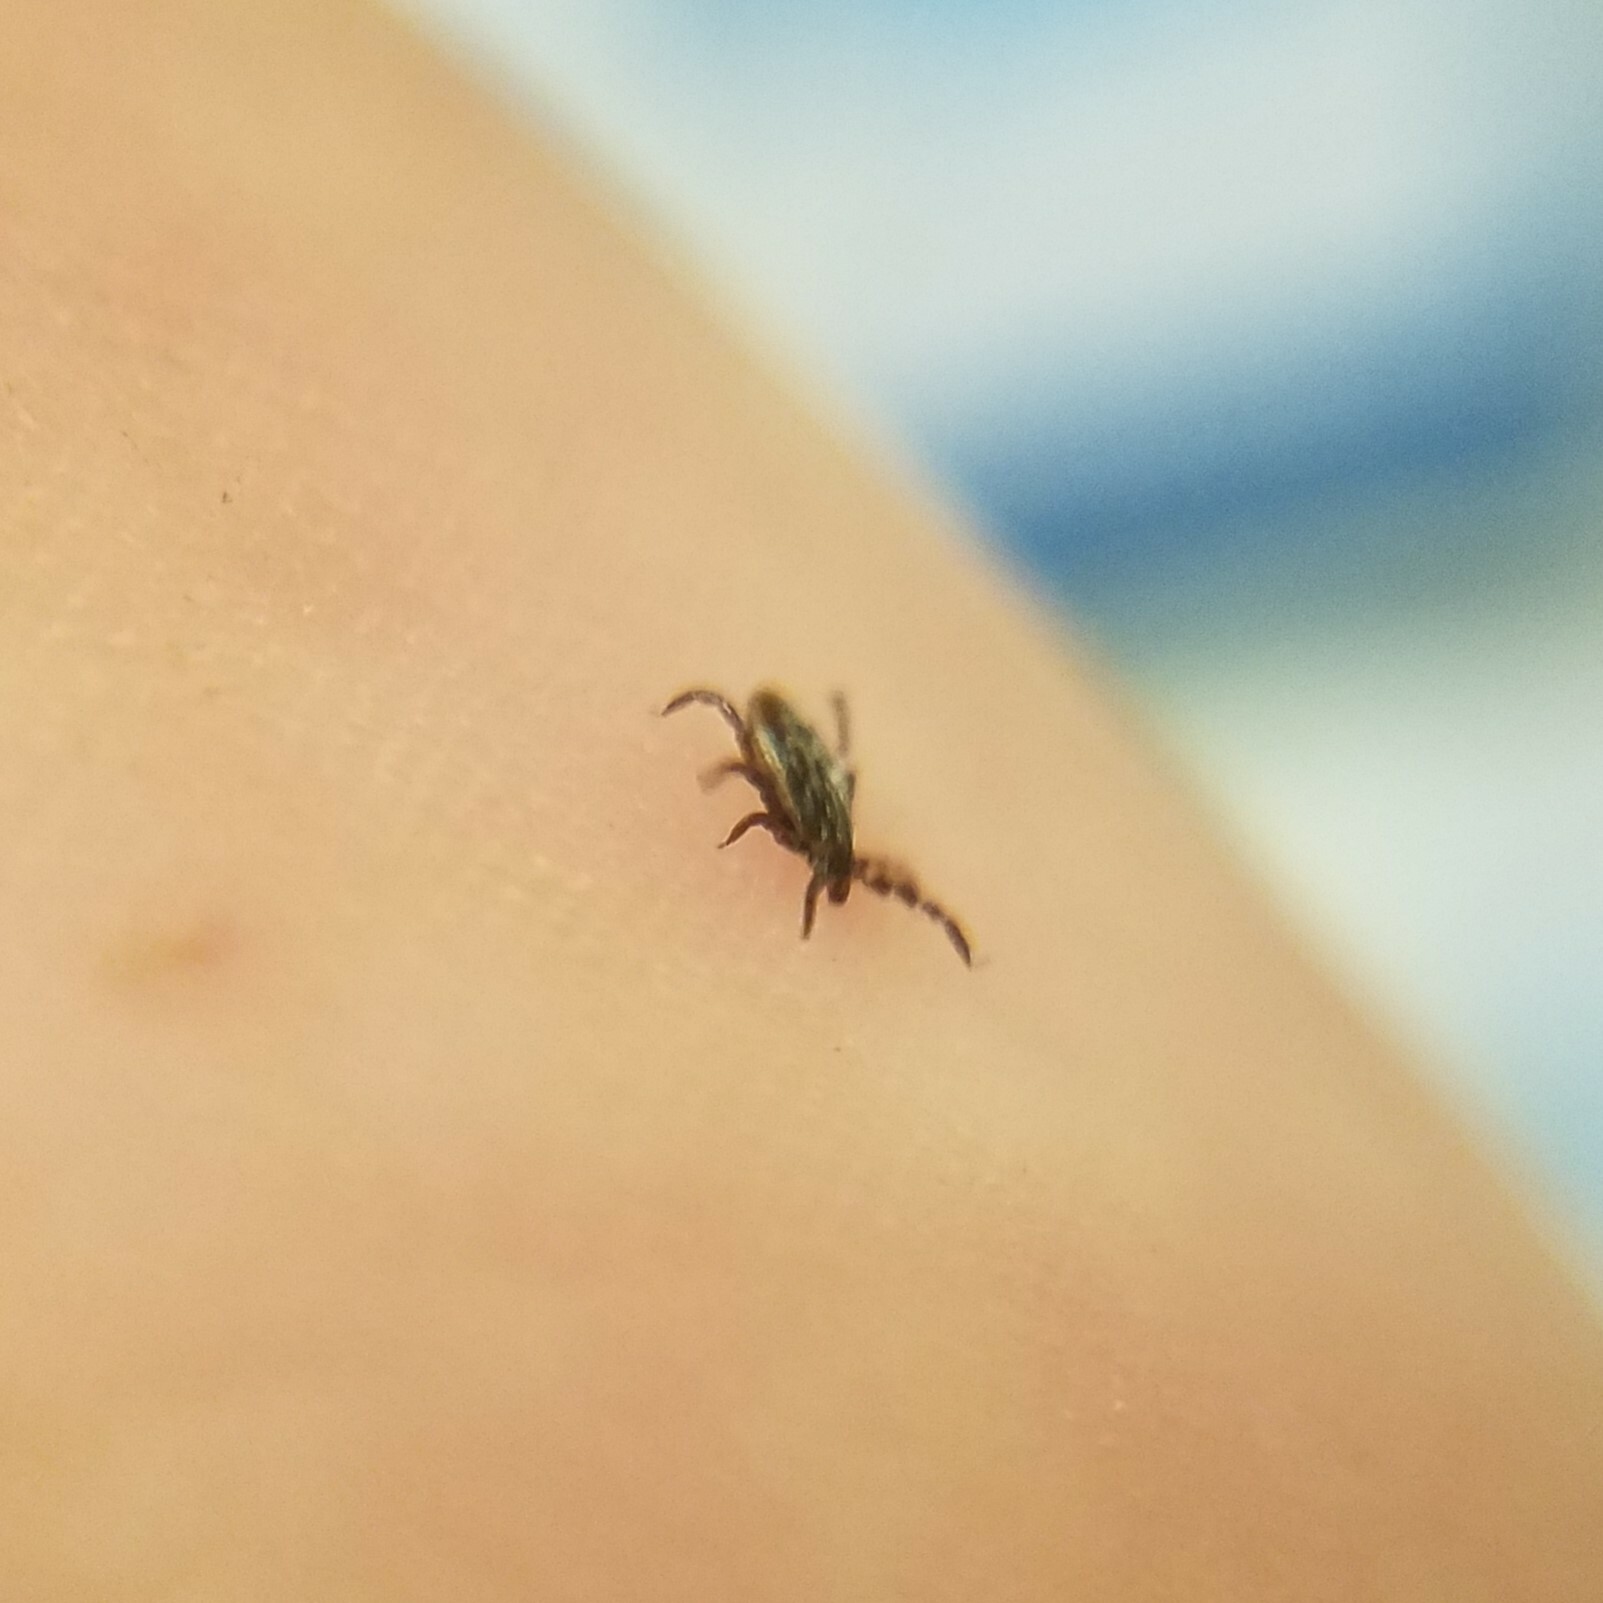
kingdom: Animalia
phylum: Arthropoda
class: Arachnida
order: Ixodida
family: Ixodidae
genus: Ixodes
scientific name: Ixodes scapularis
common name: Black legged tick
